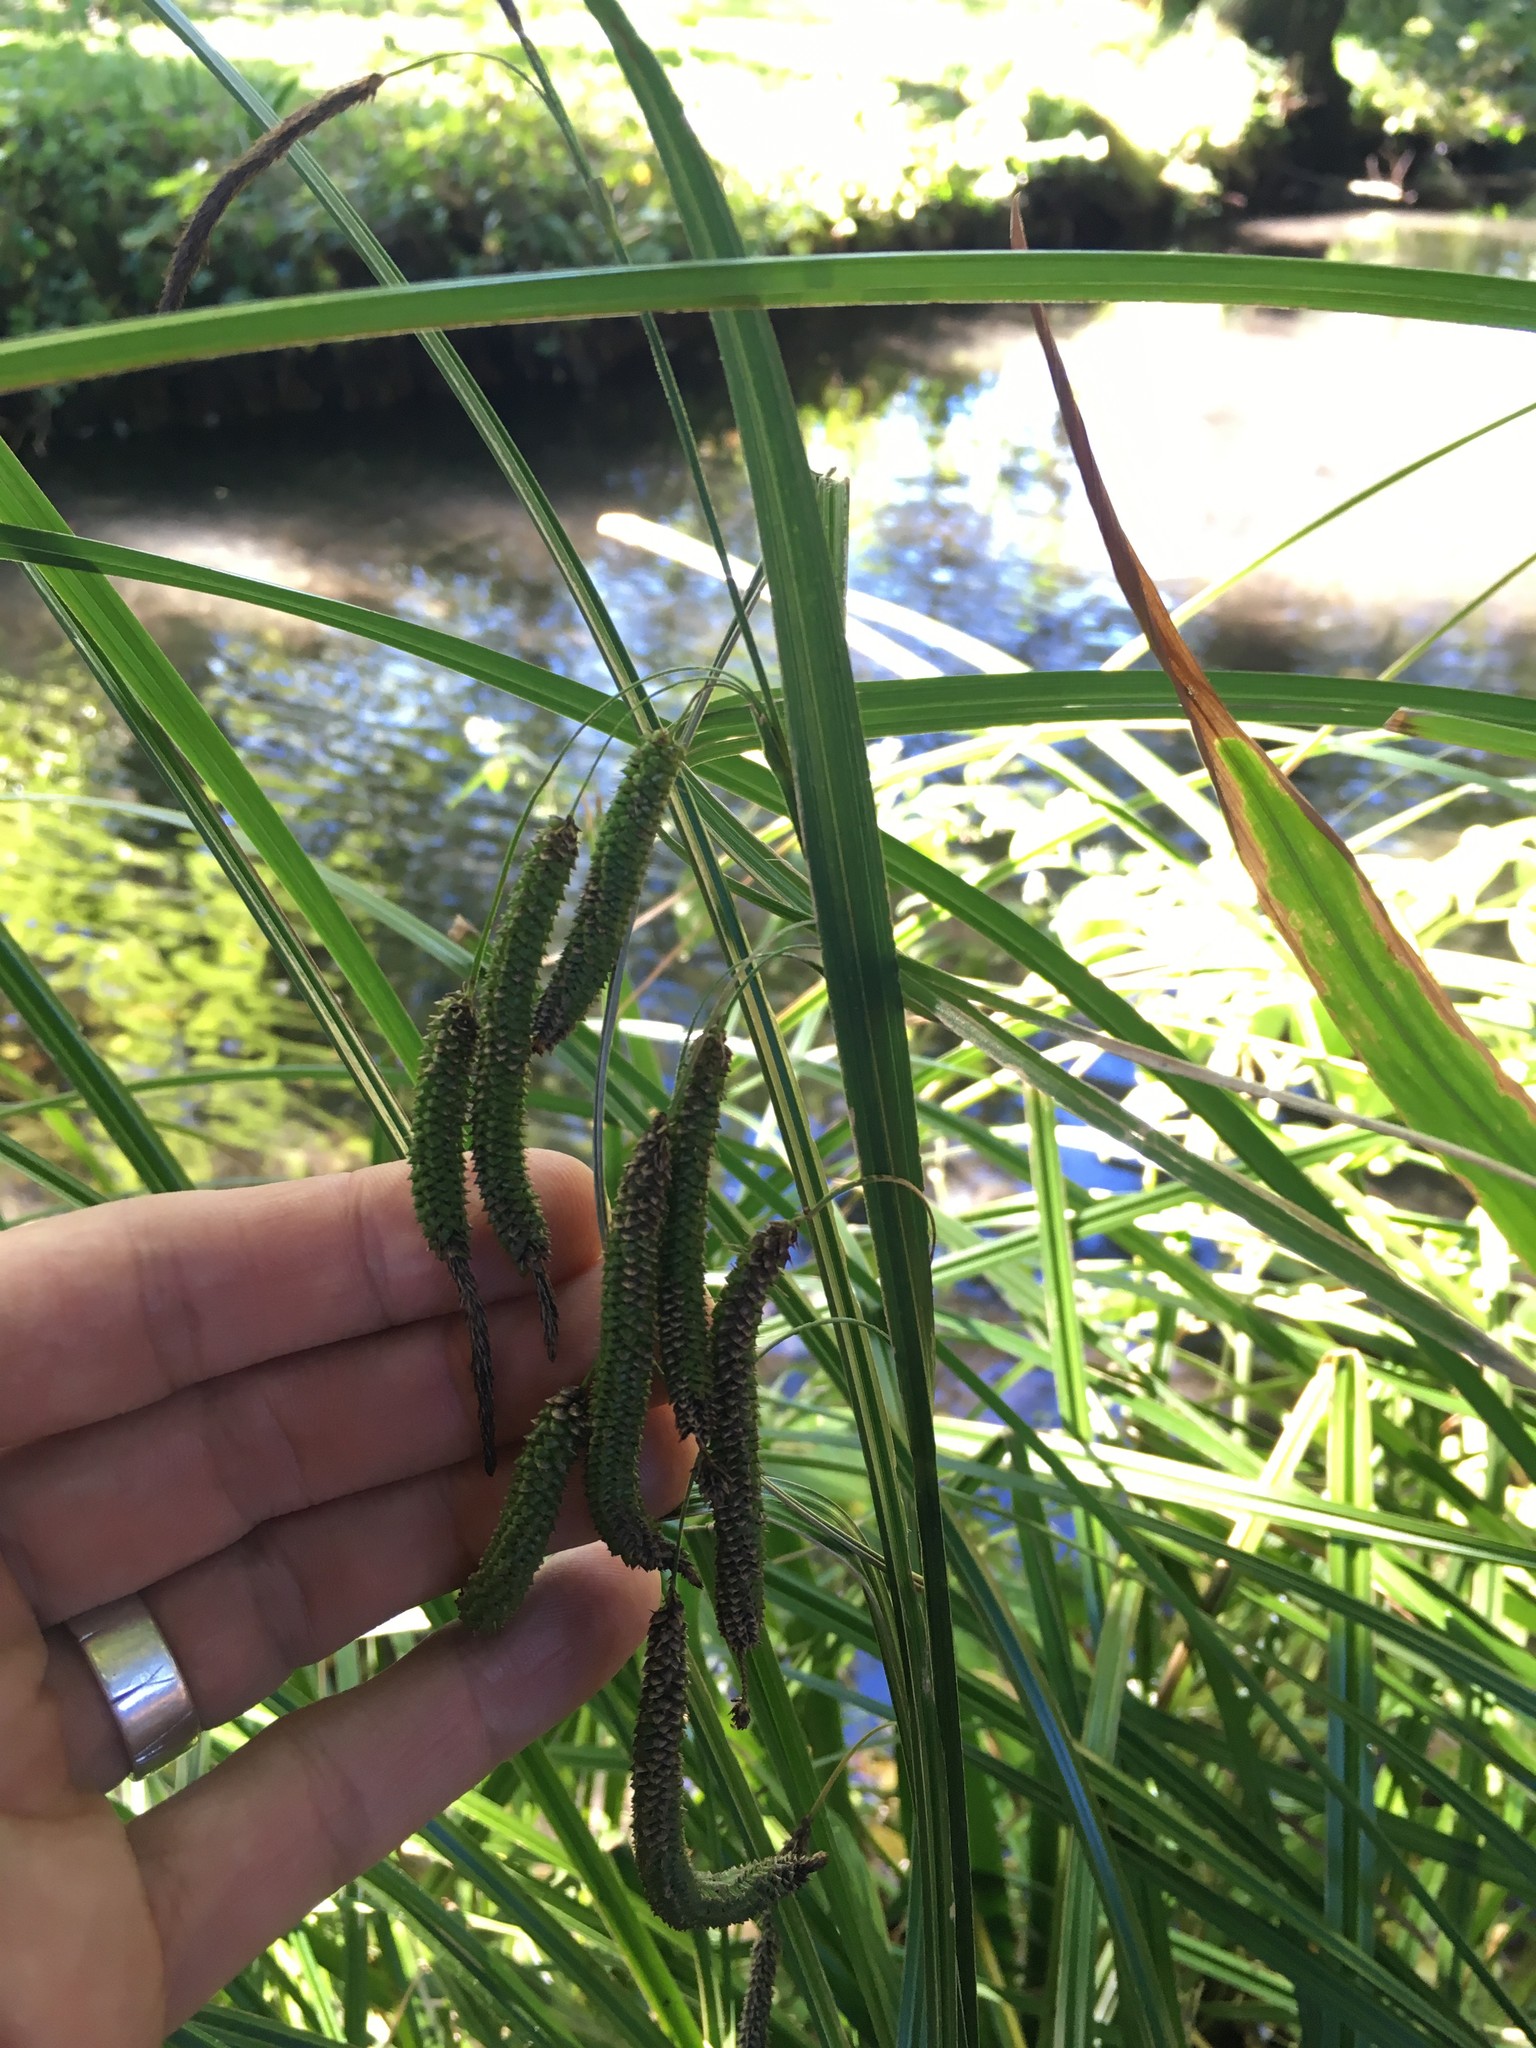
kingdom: Plantae
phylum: Tracheophyta
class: Liliopsida
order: Poales
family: Cyperaceae
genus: Carex
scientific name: Carex geminata
